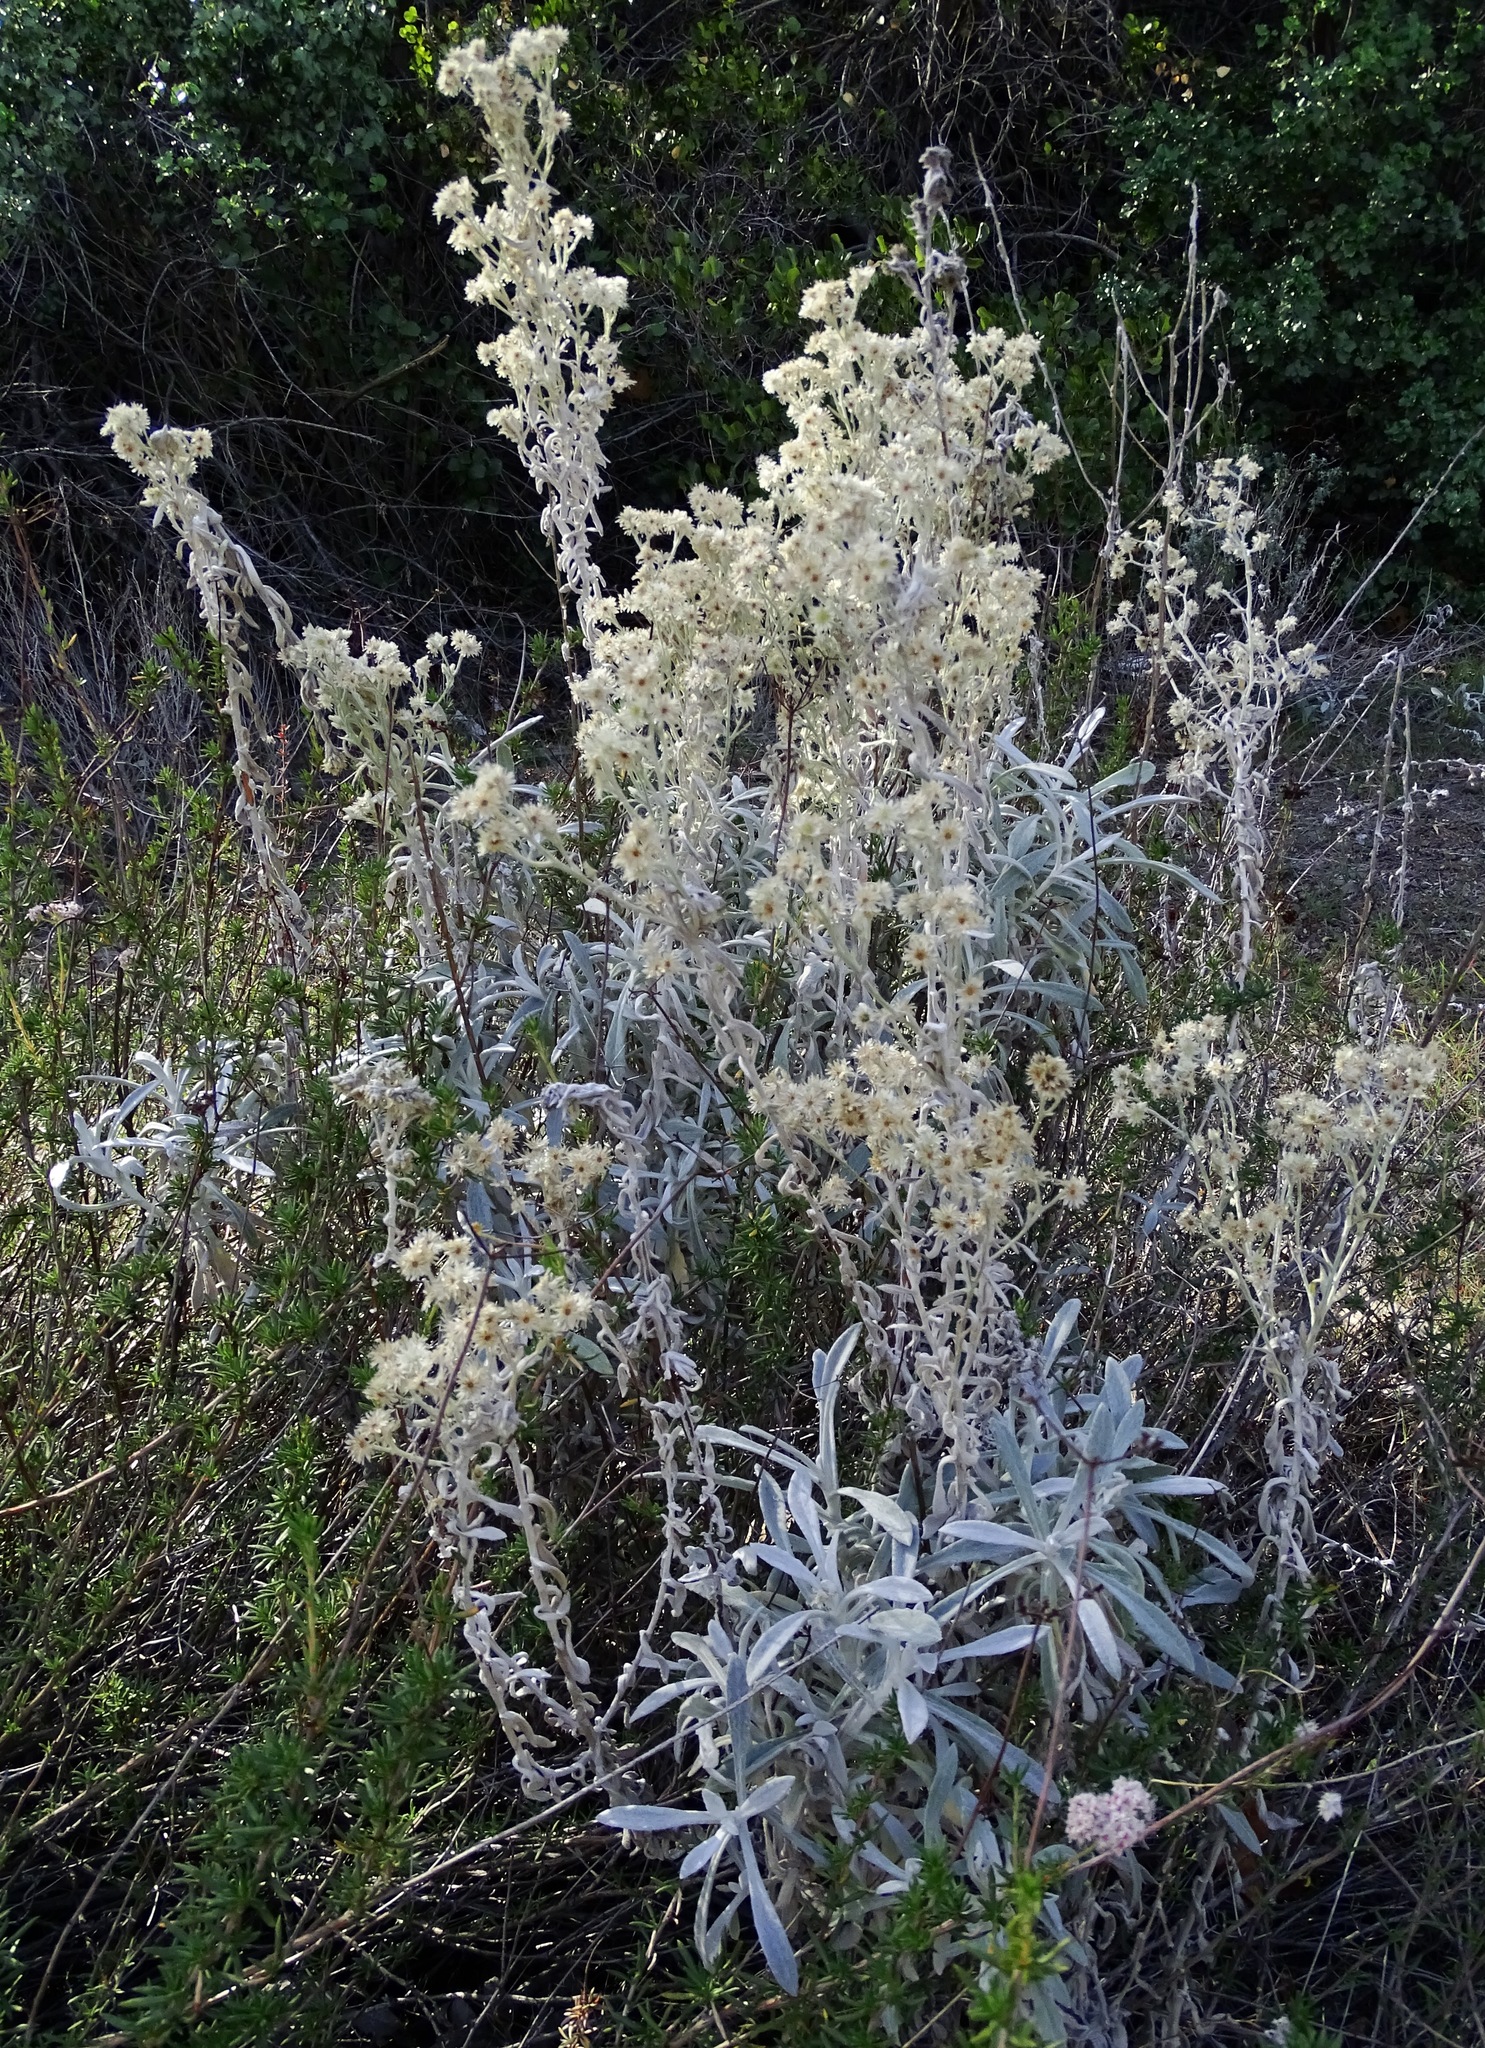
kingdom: Plantae
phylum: Tracheophyta
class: Magnoliopsida
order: Asterales
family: Asteraceae
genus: Pseudognaphalium
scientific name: Pseudognaphalium microcephalum
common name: San diego rabbit-tobacco
